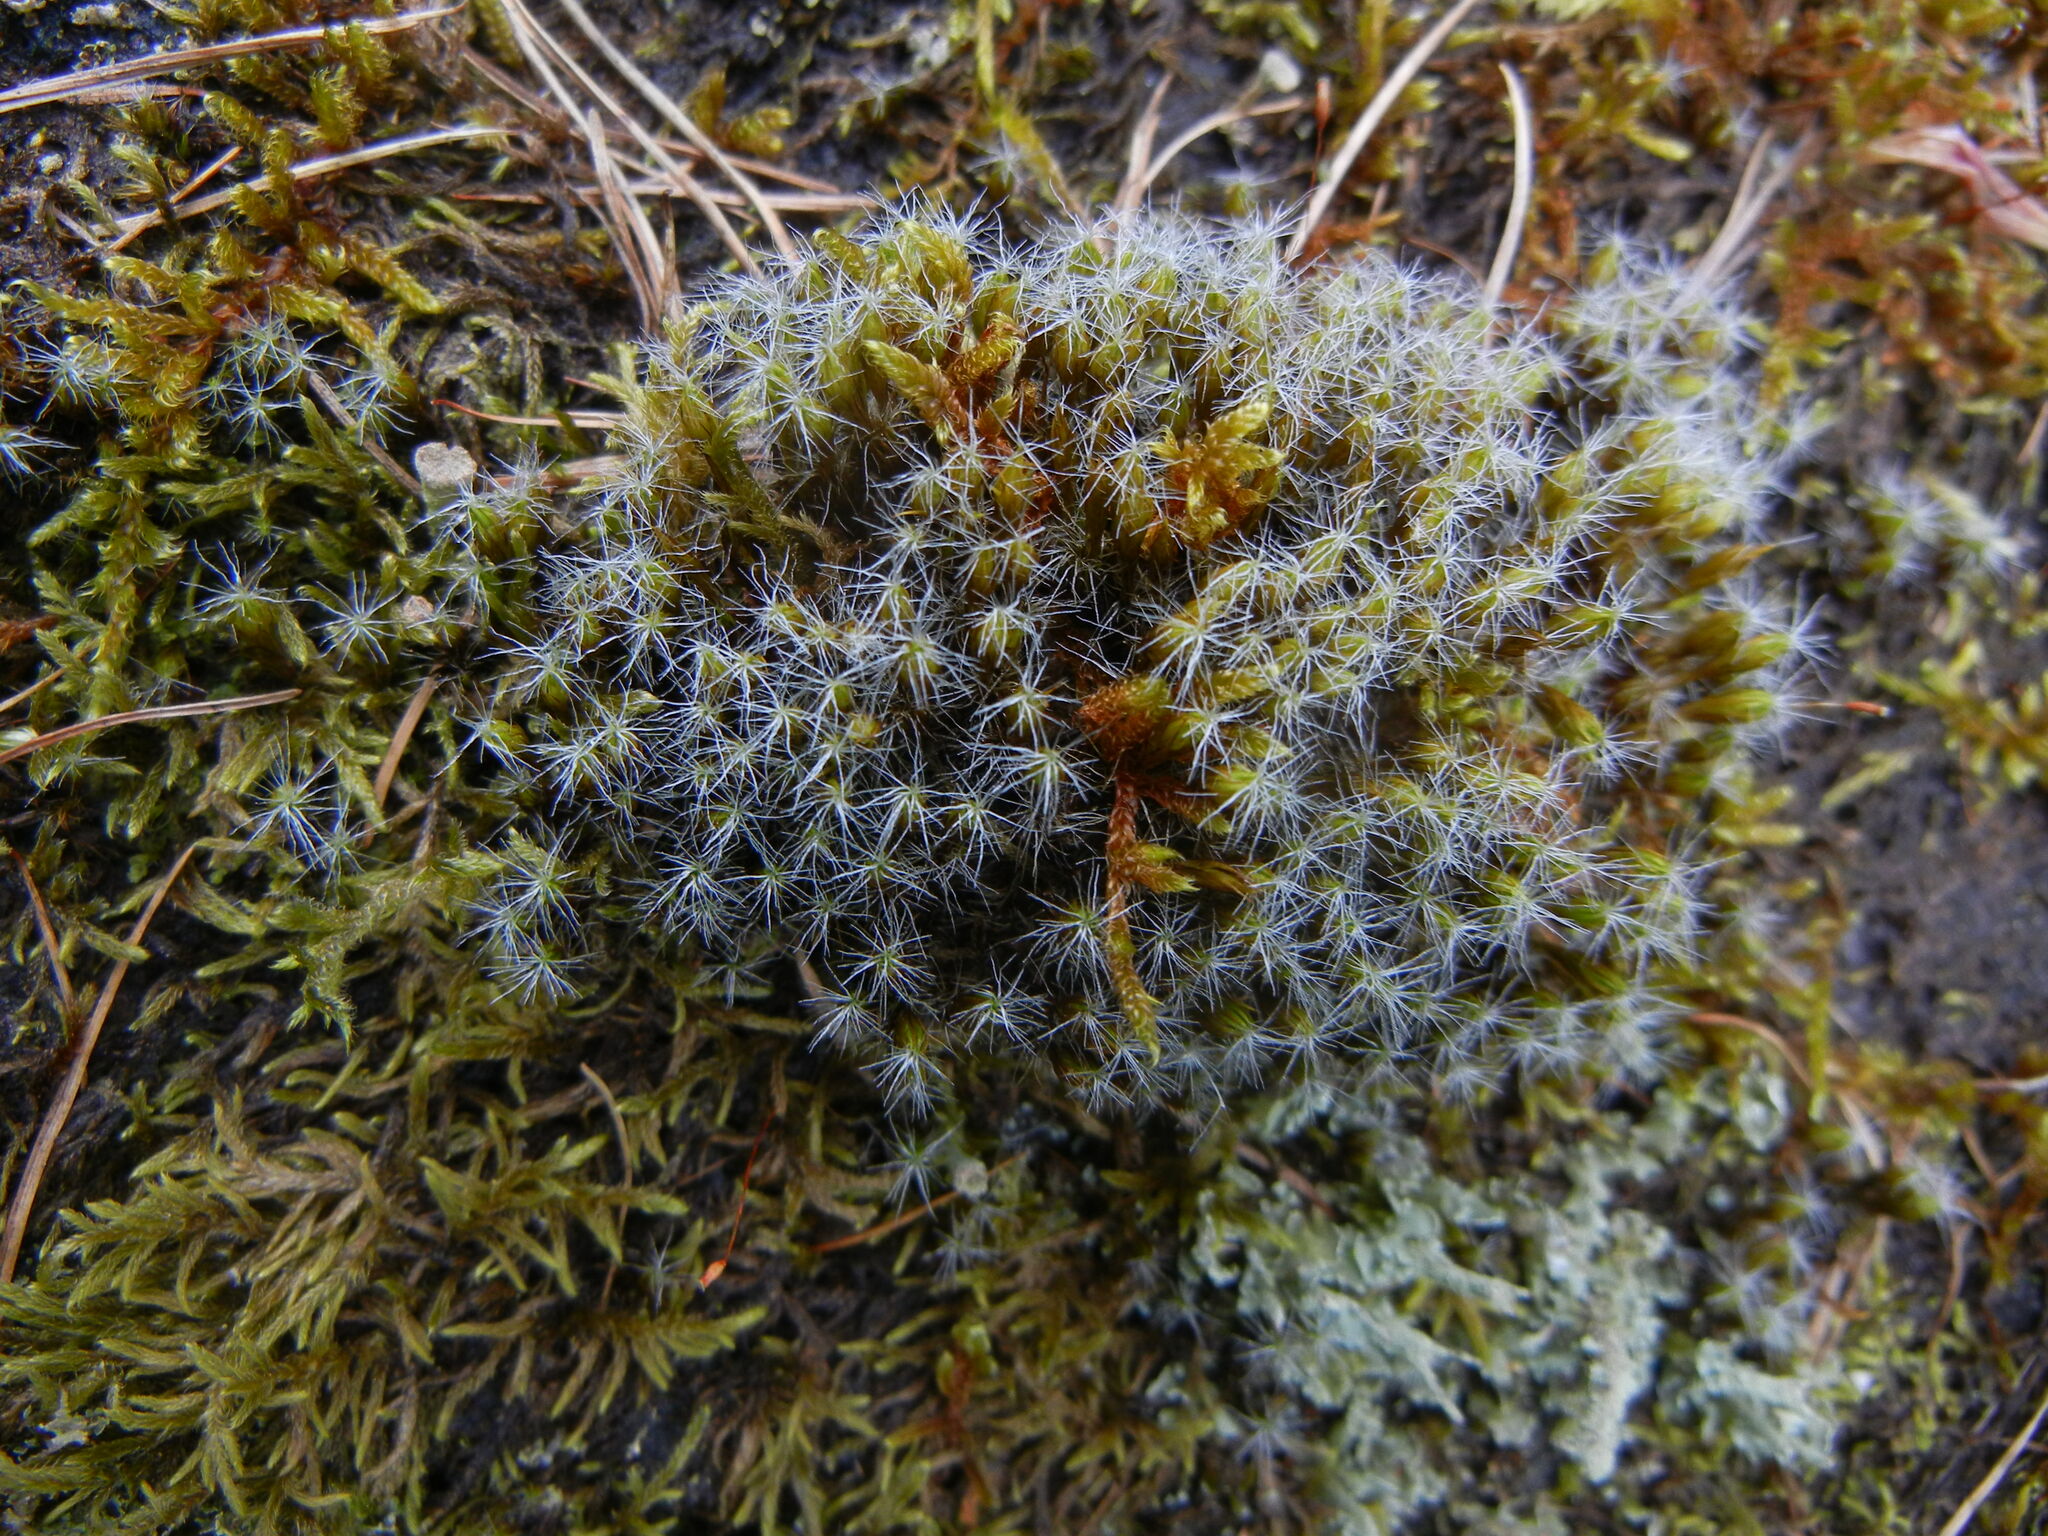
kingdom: Plantae
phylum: Bryophyta
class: Bryopsida
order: Dicranales
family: Leucobryaceae
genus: Campylopus
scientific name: Campylopus introflexus
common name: Heath star moss
